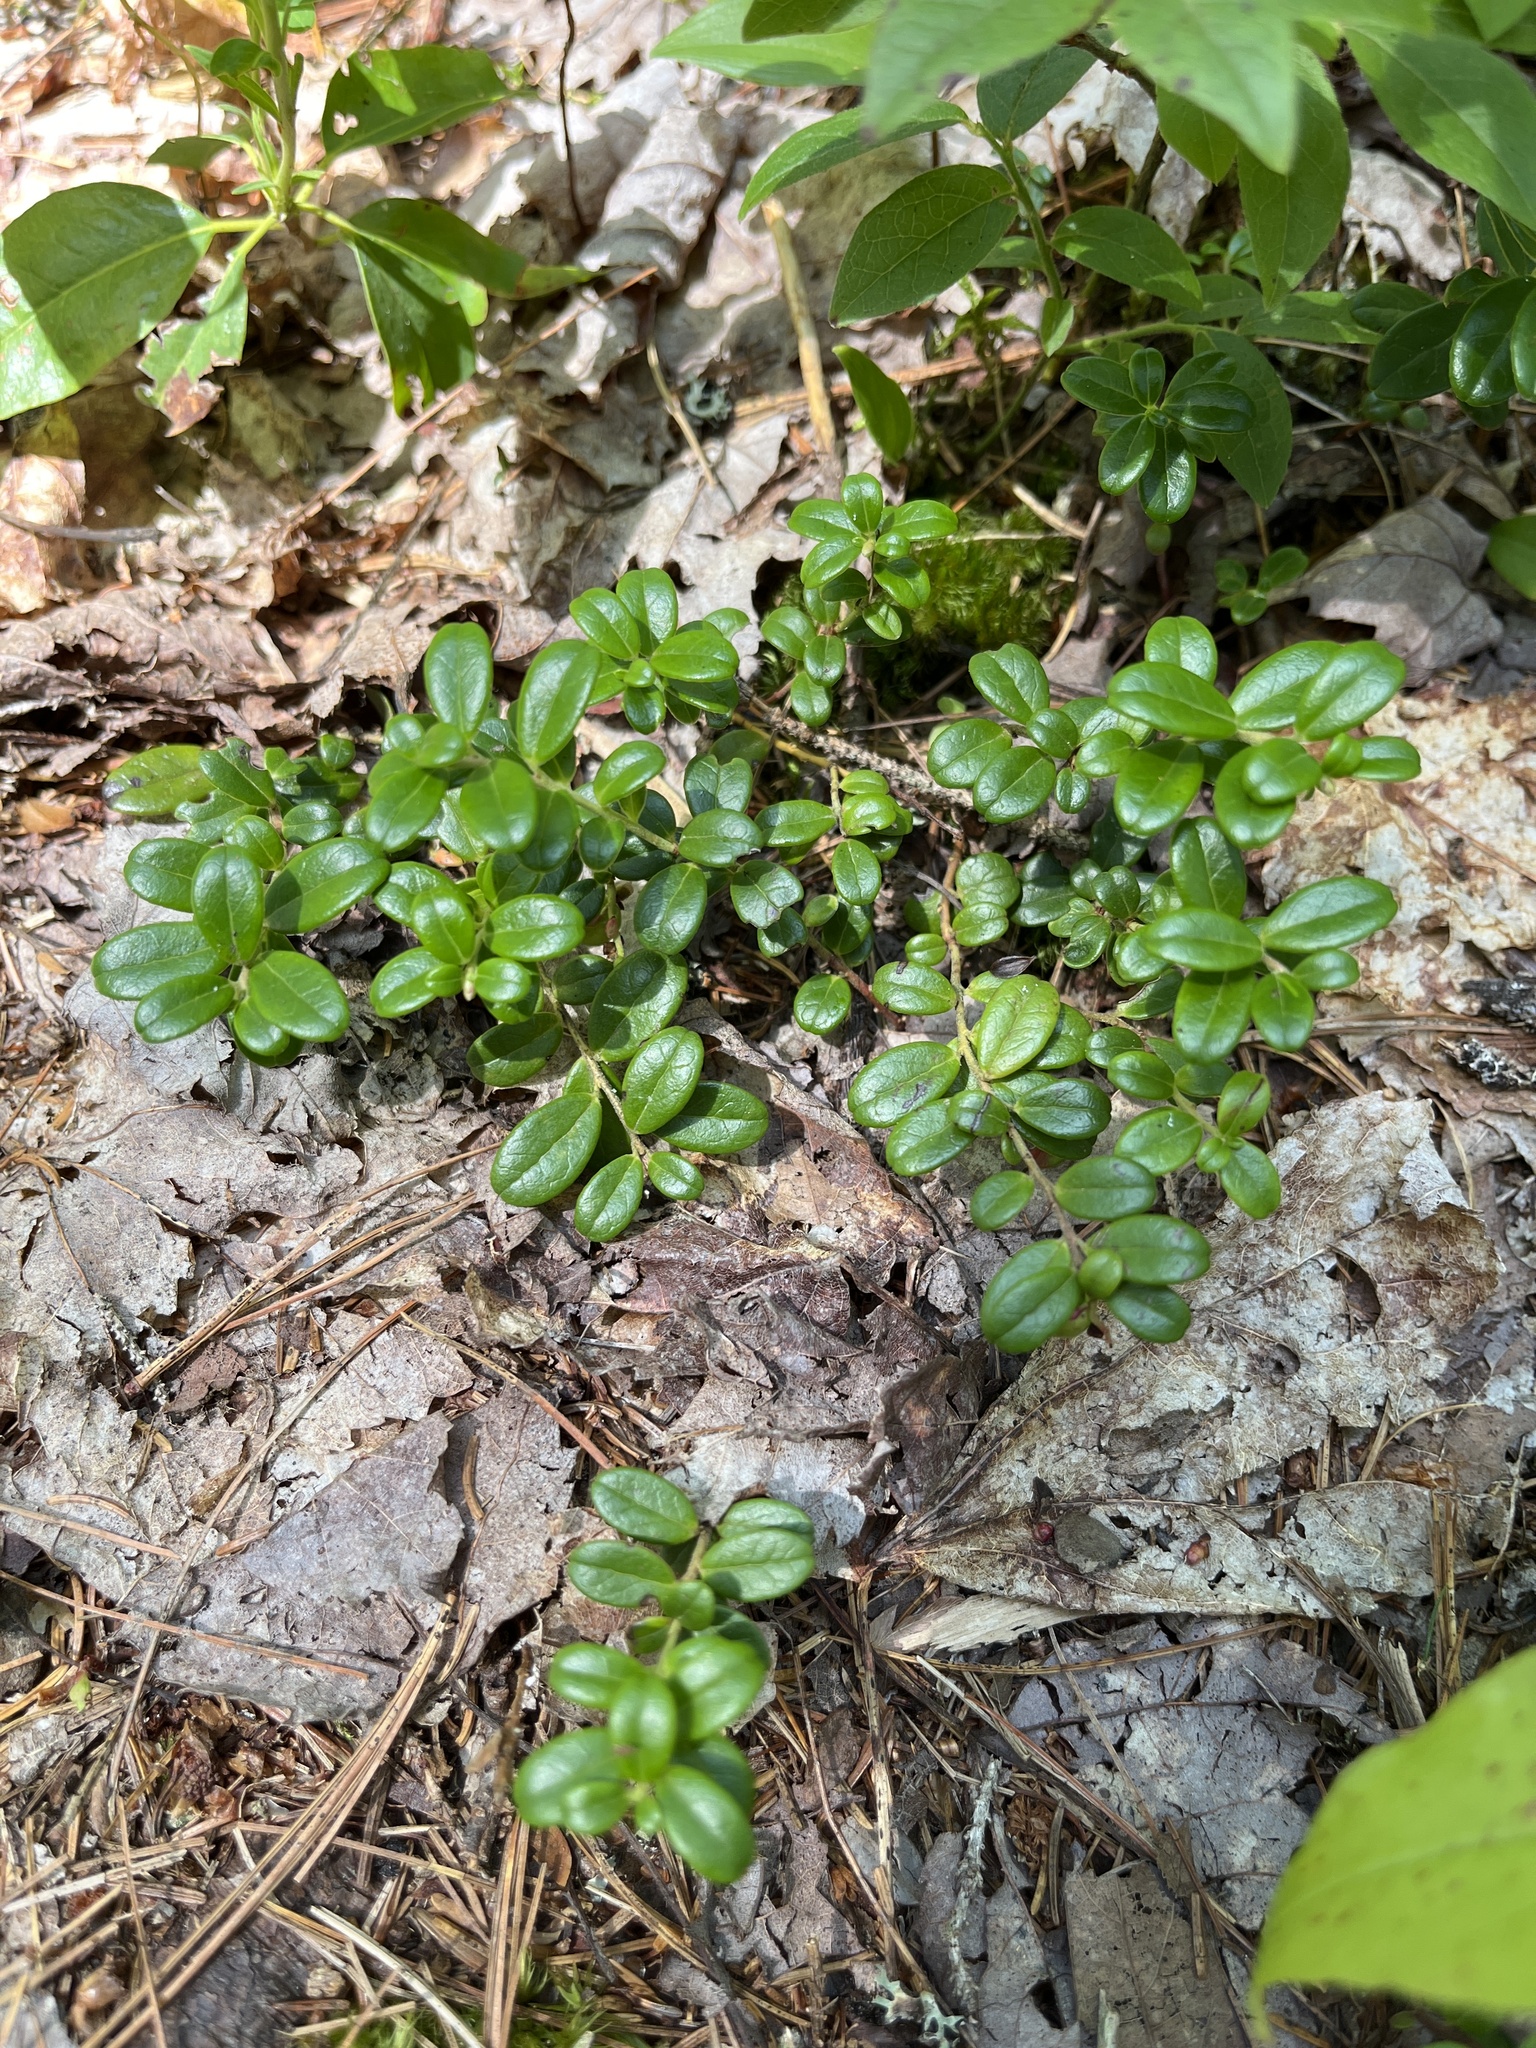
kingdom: Plantae
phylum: Tracheophyta
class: Magnoliopsida
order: Ericales
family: Ericaceae
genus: Vaccinium
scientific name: Vaccinium vitis-idaea
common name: Cowberry
